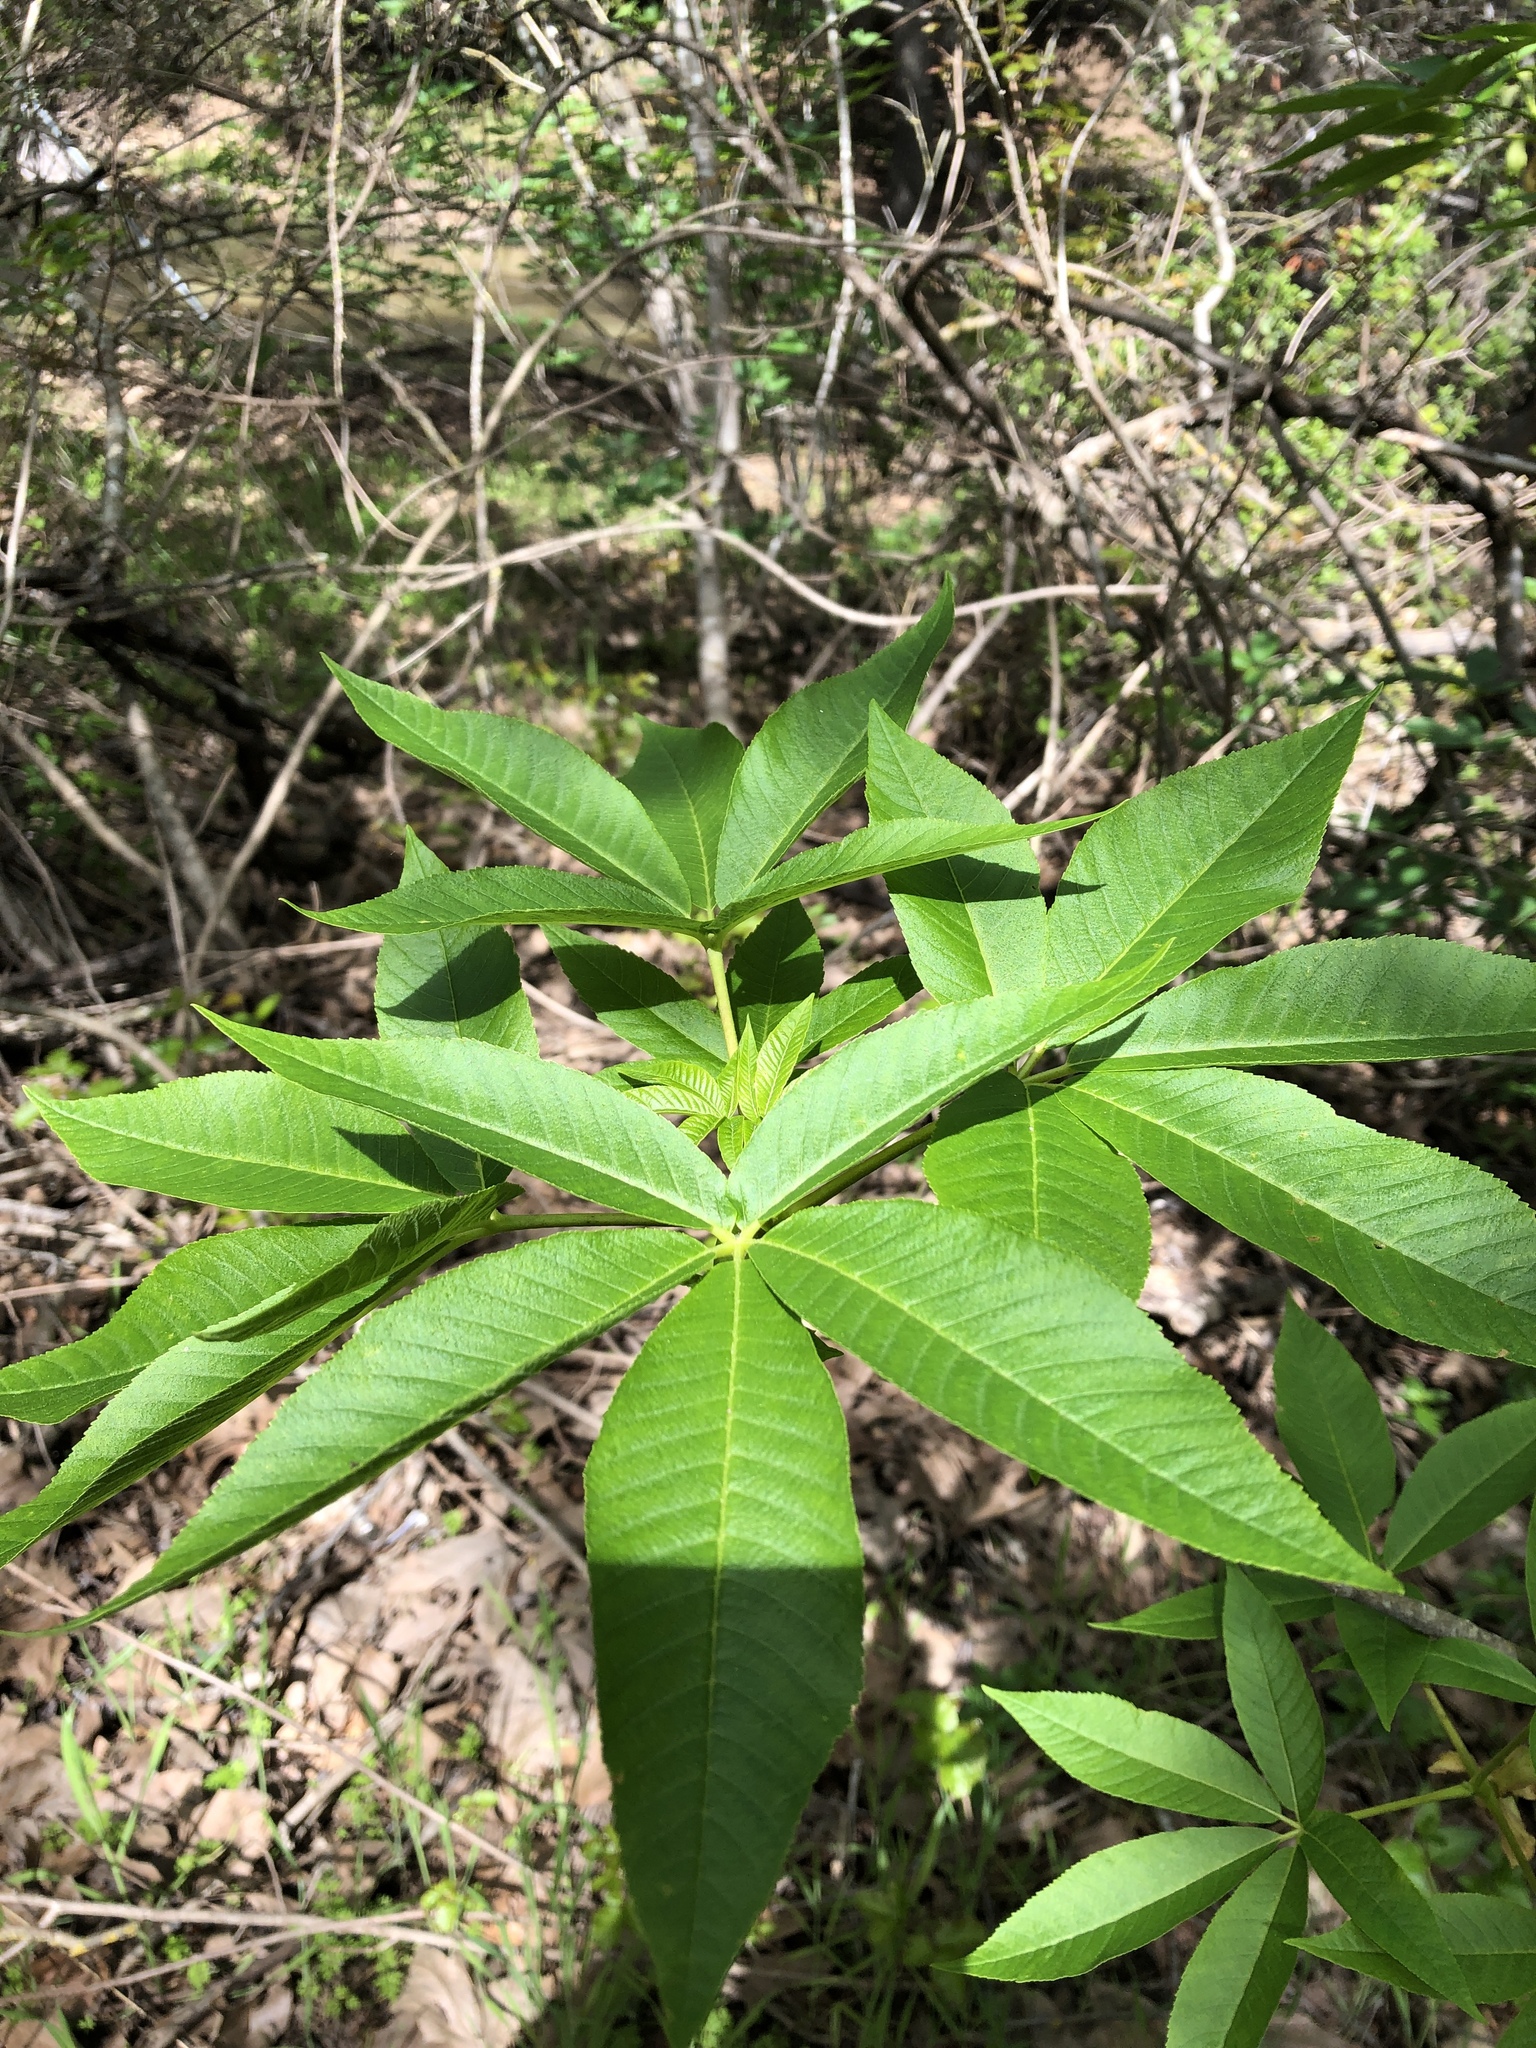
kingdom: Plantae
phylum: Tracheophyta
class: Magnoliopsida
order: Sapindales
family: Sapindaceae
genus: Aesculus
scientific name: Aesculus californica
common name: California buckeye
